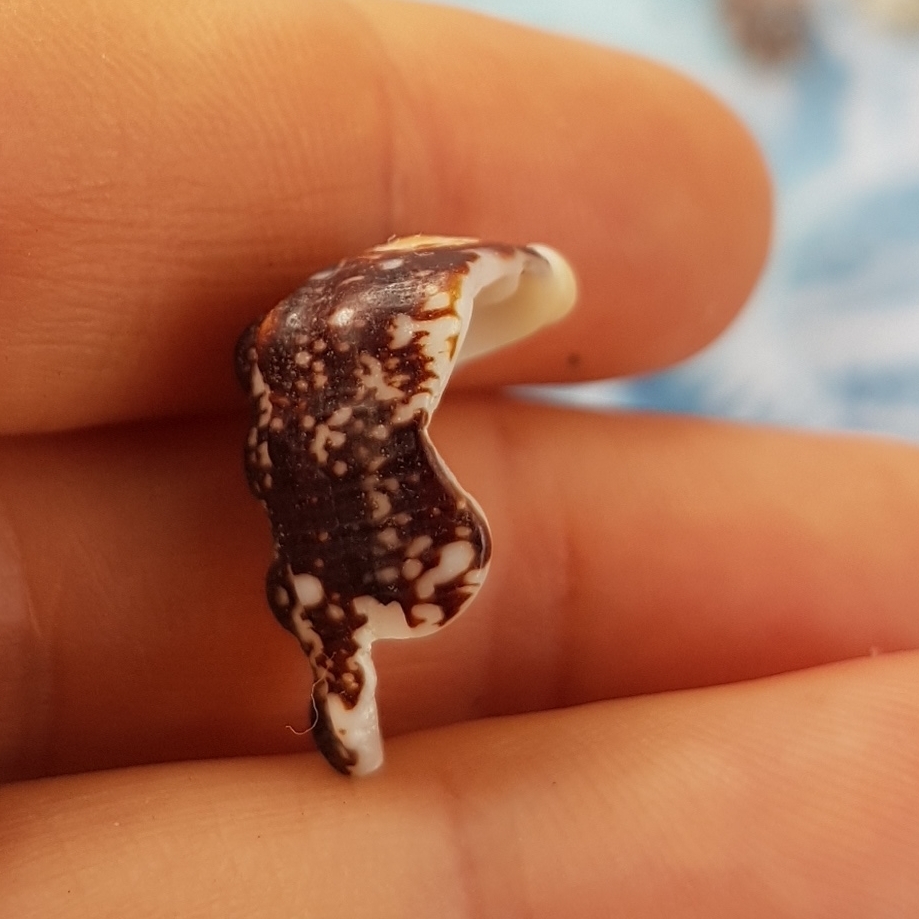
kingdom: Animalia
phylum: Mollusca
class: Gastropoda
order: Neogastropoda
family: Harpidae
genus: Morum
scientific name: Morum tuberculosum
